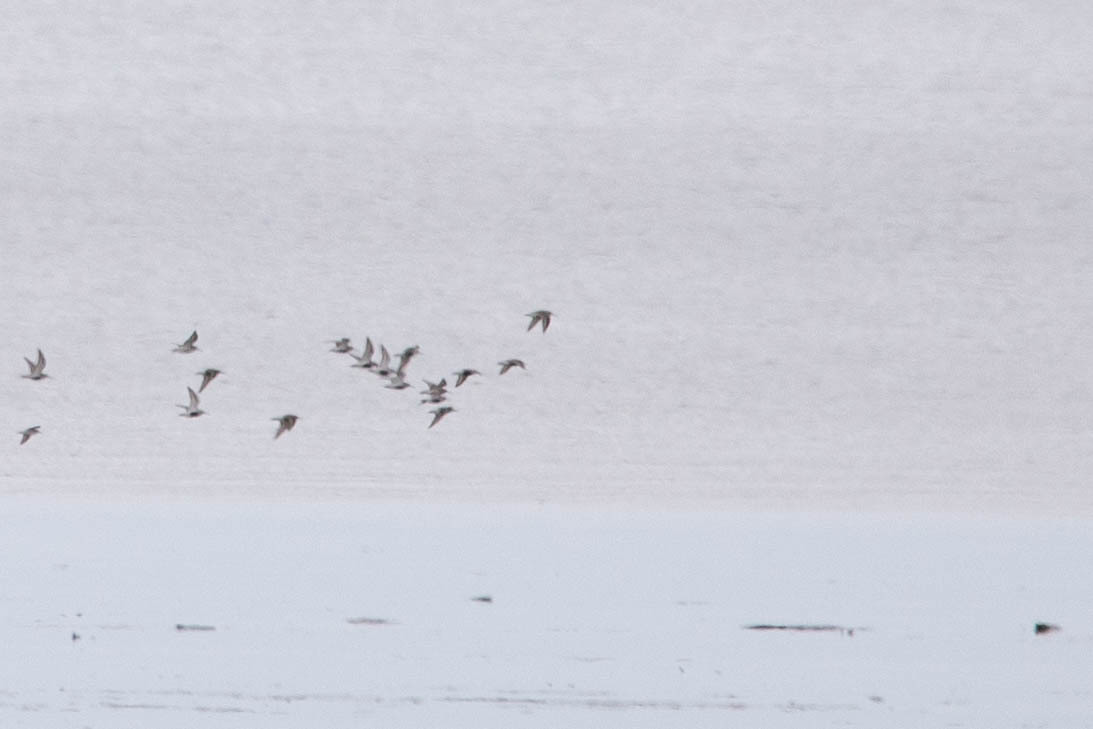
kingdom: Animalia
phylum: Chordata
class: Aves
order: Charadriiformes
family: Scolopacidae
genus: Calidris
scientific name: Calidris alpina
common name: Dunlin
